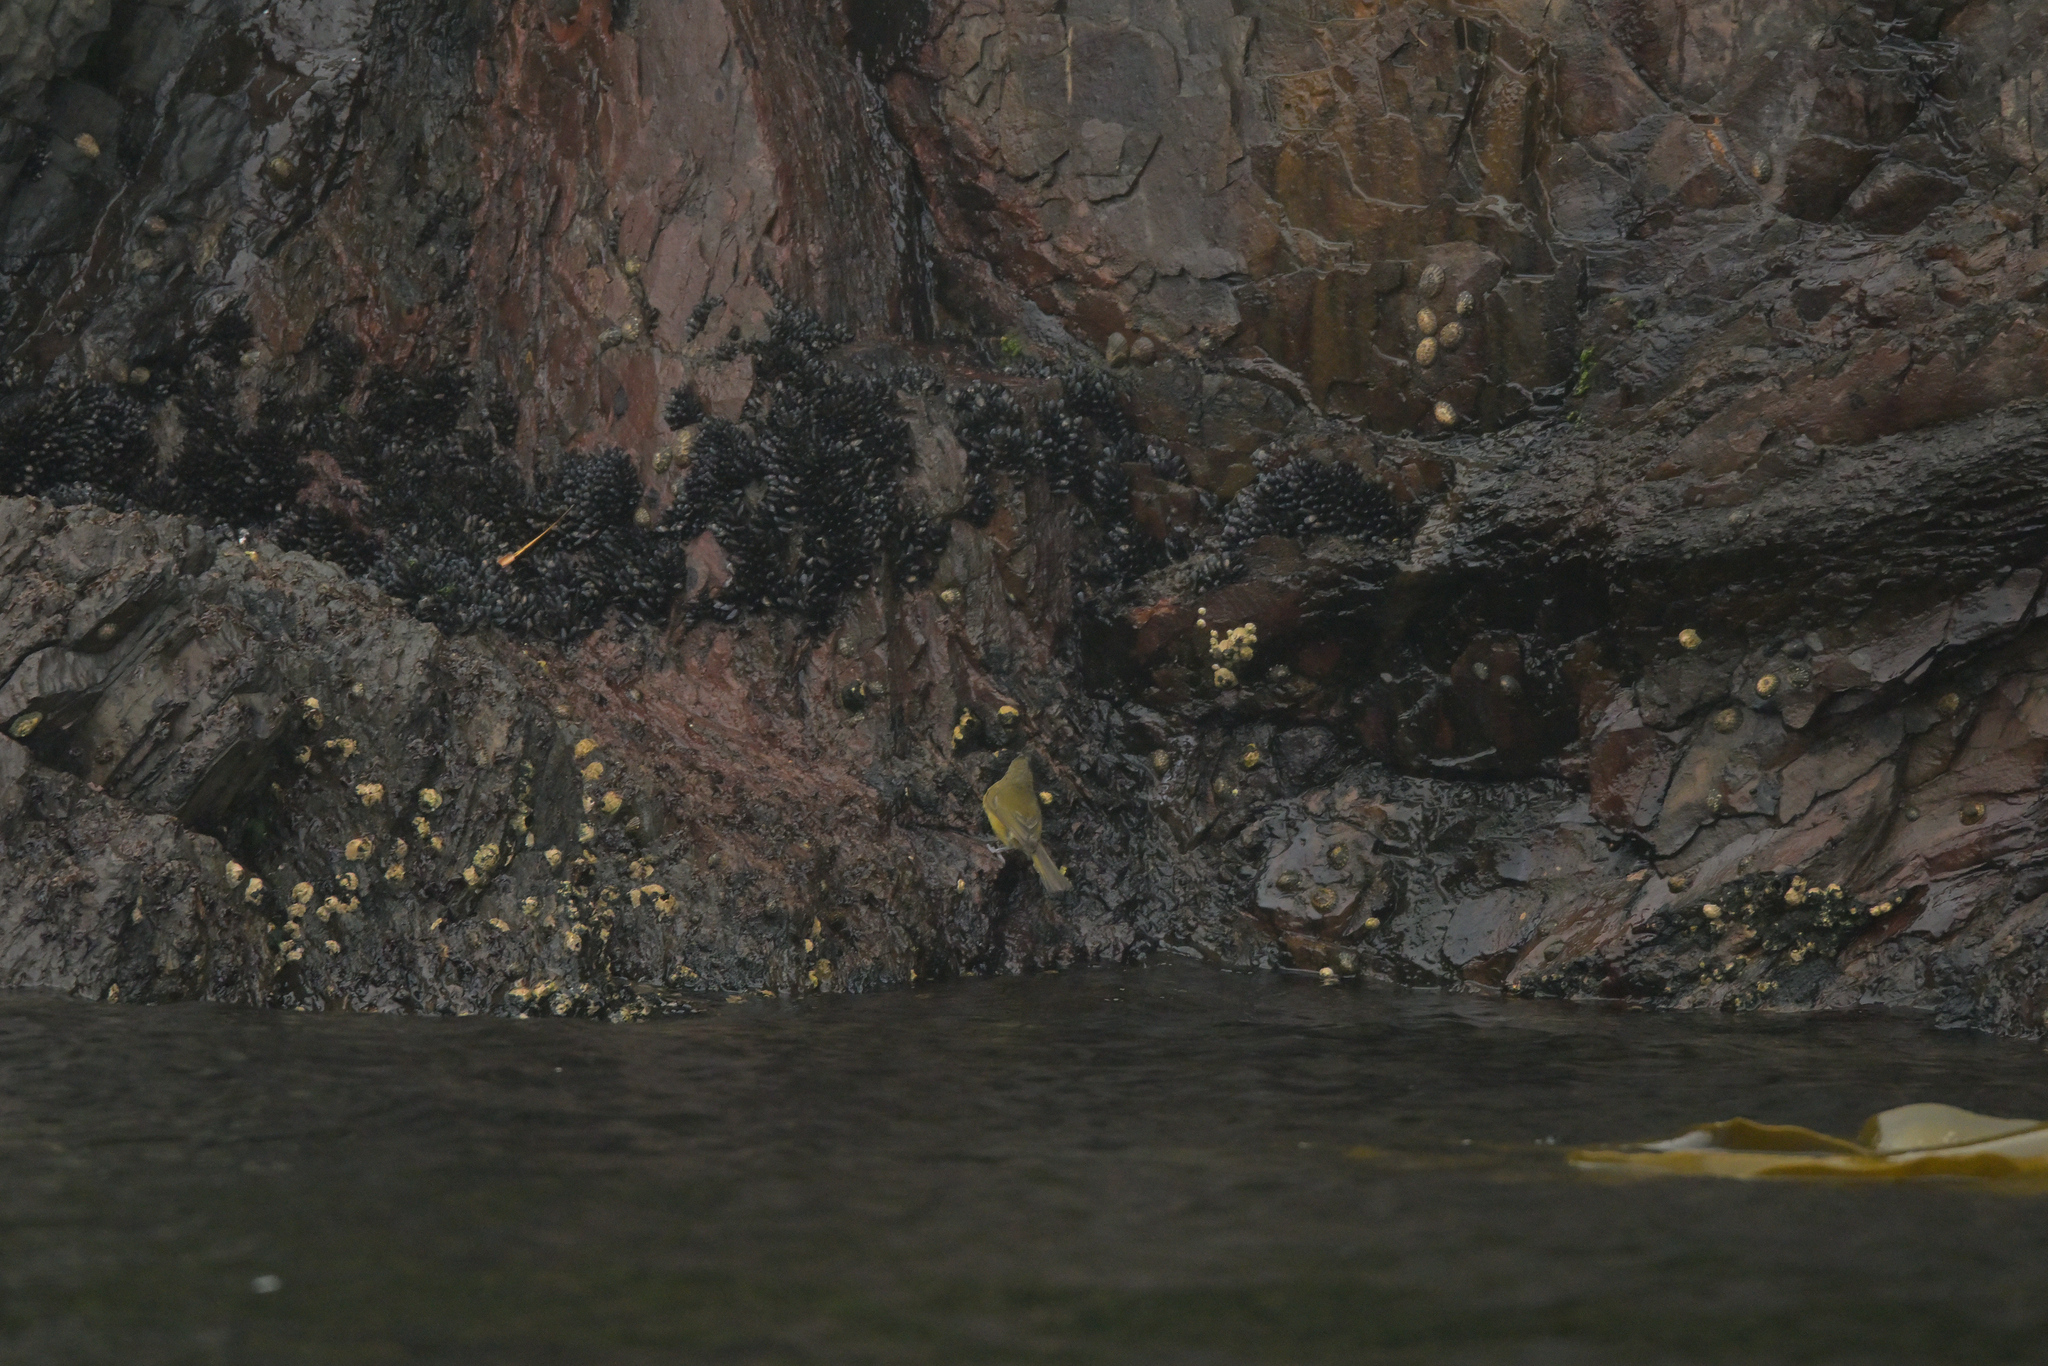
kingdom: Animalia
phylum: Chordata
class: Aves
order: Passeriformes
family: Meliphagidae
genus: Anthornis
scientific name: Anthornis melanura
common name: New zealand bellbird
